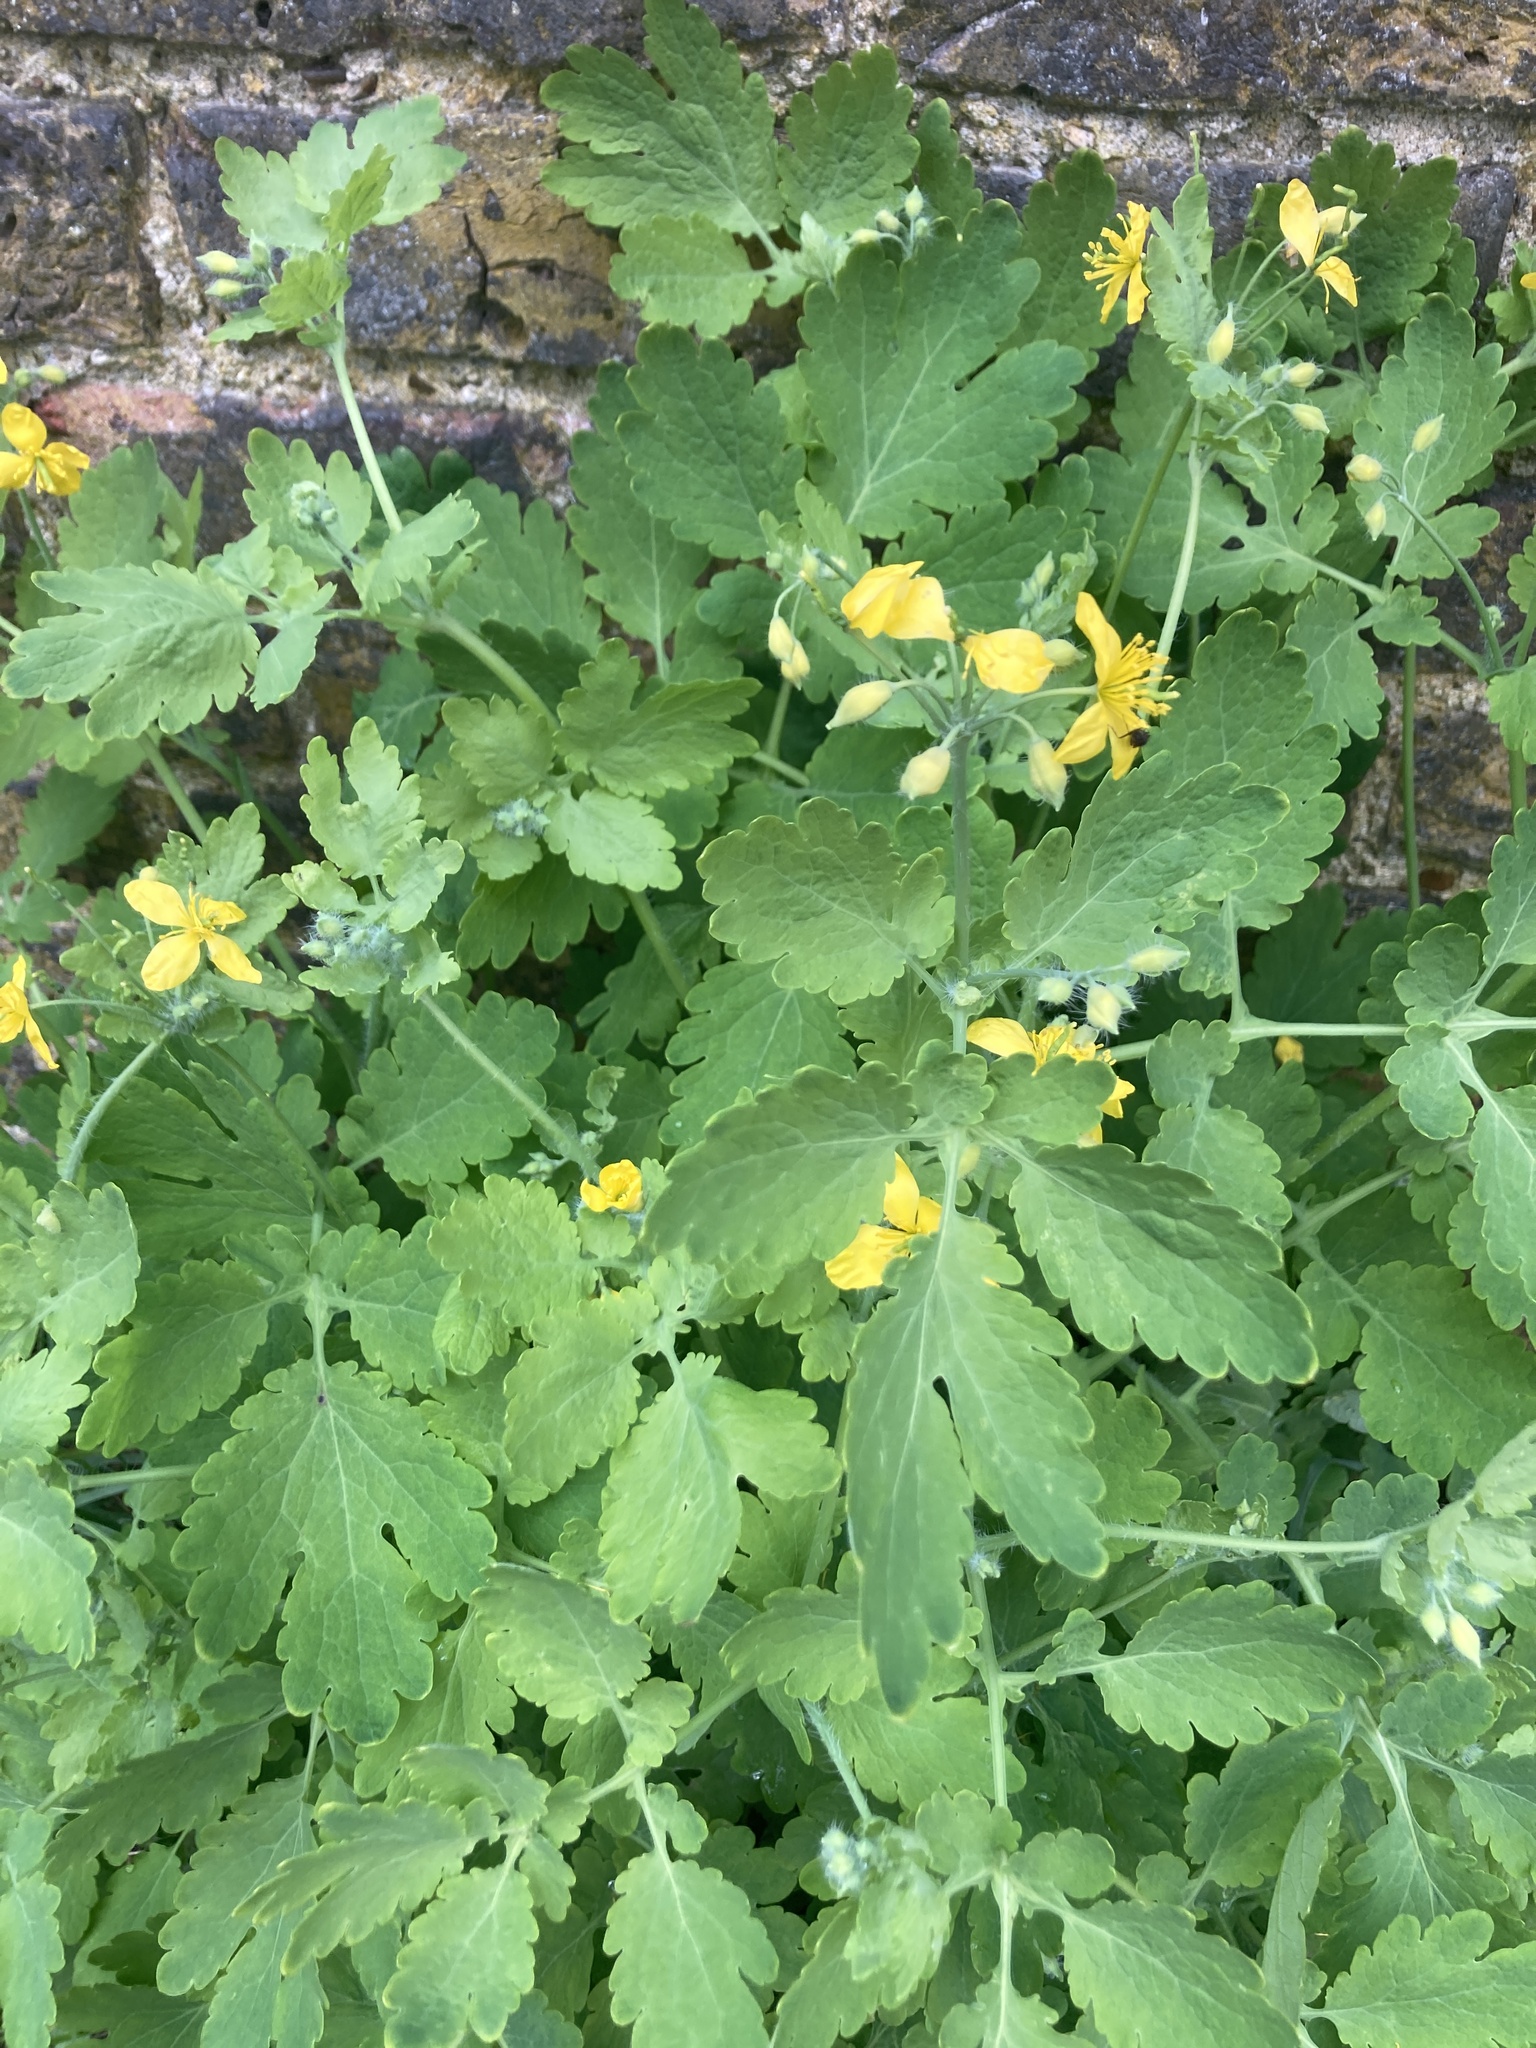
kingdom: Plantae
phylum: Tracheophyta
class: Magnoliopsida
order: Ranunculales
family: Papaveraceae
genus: Chelidonium
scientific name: Chelidonium majus
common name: Greater celandine
